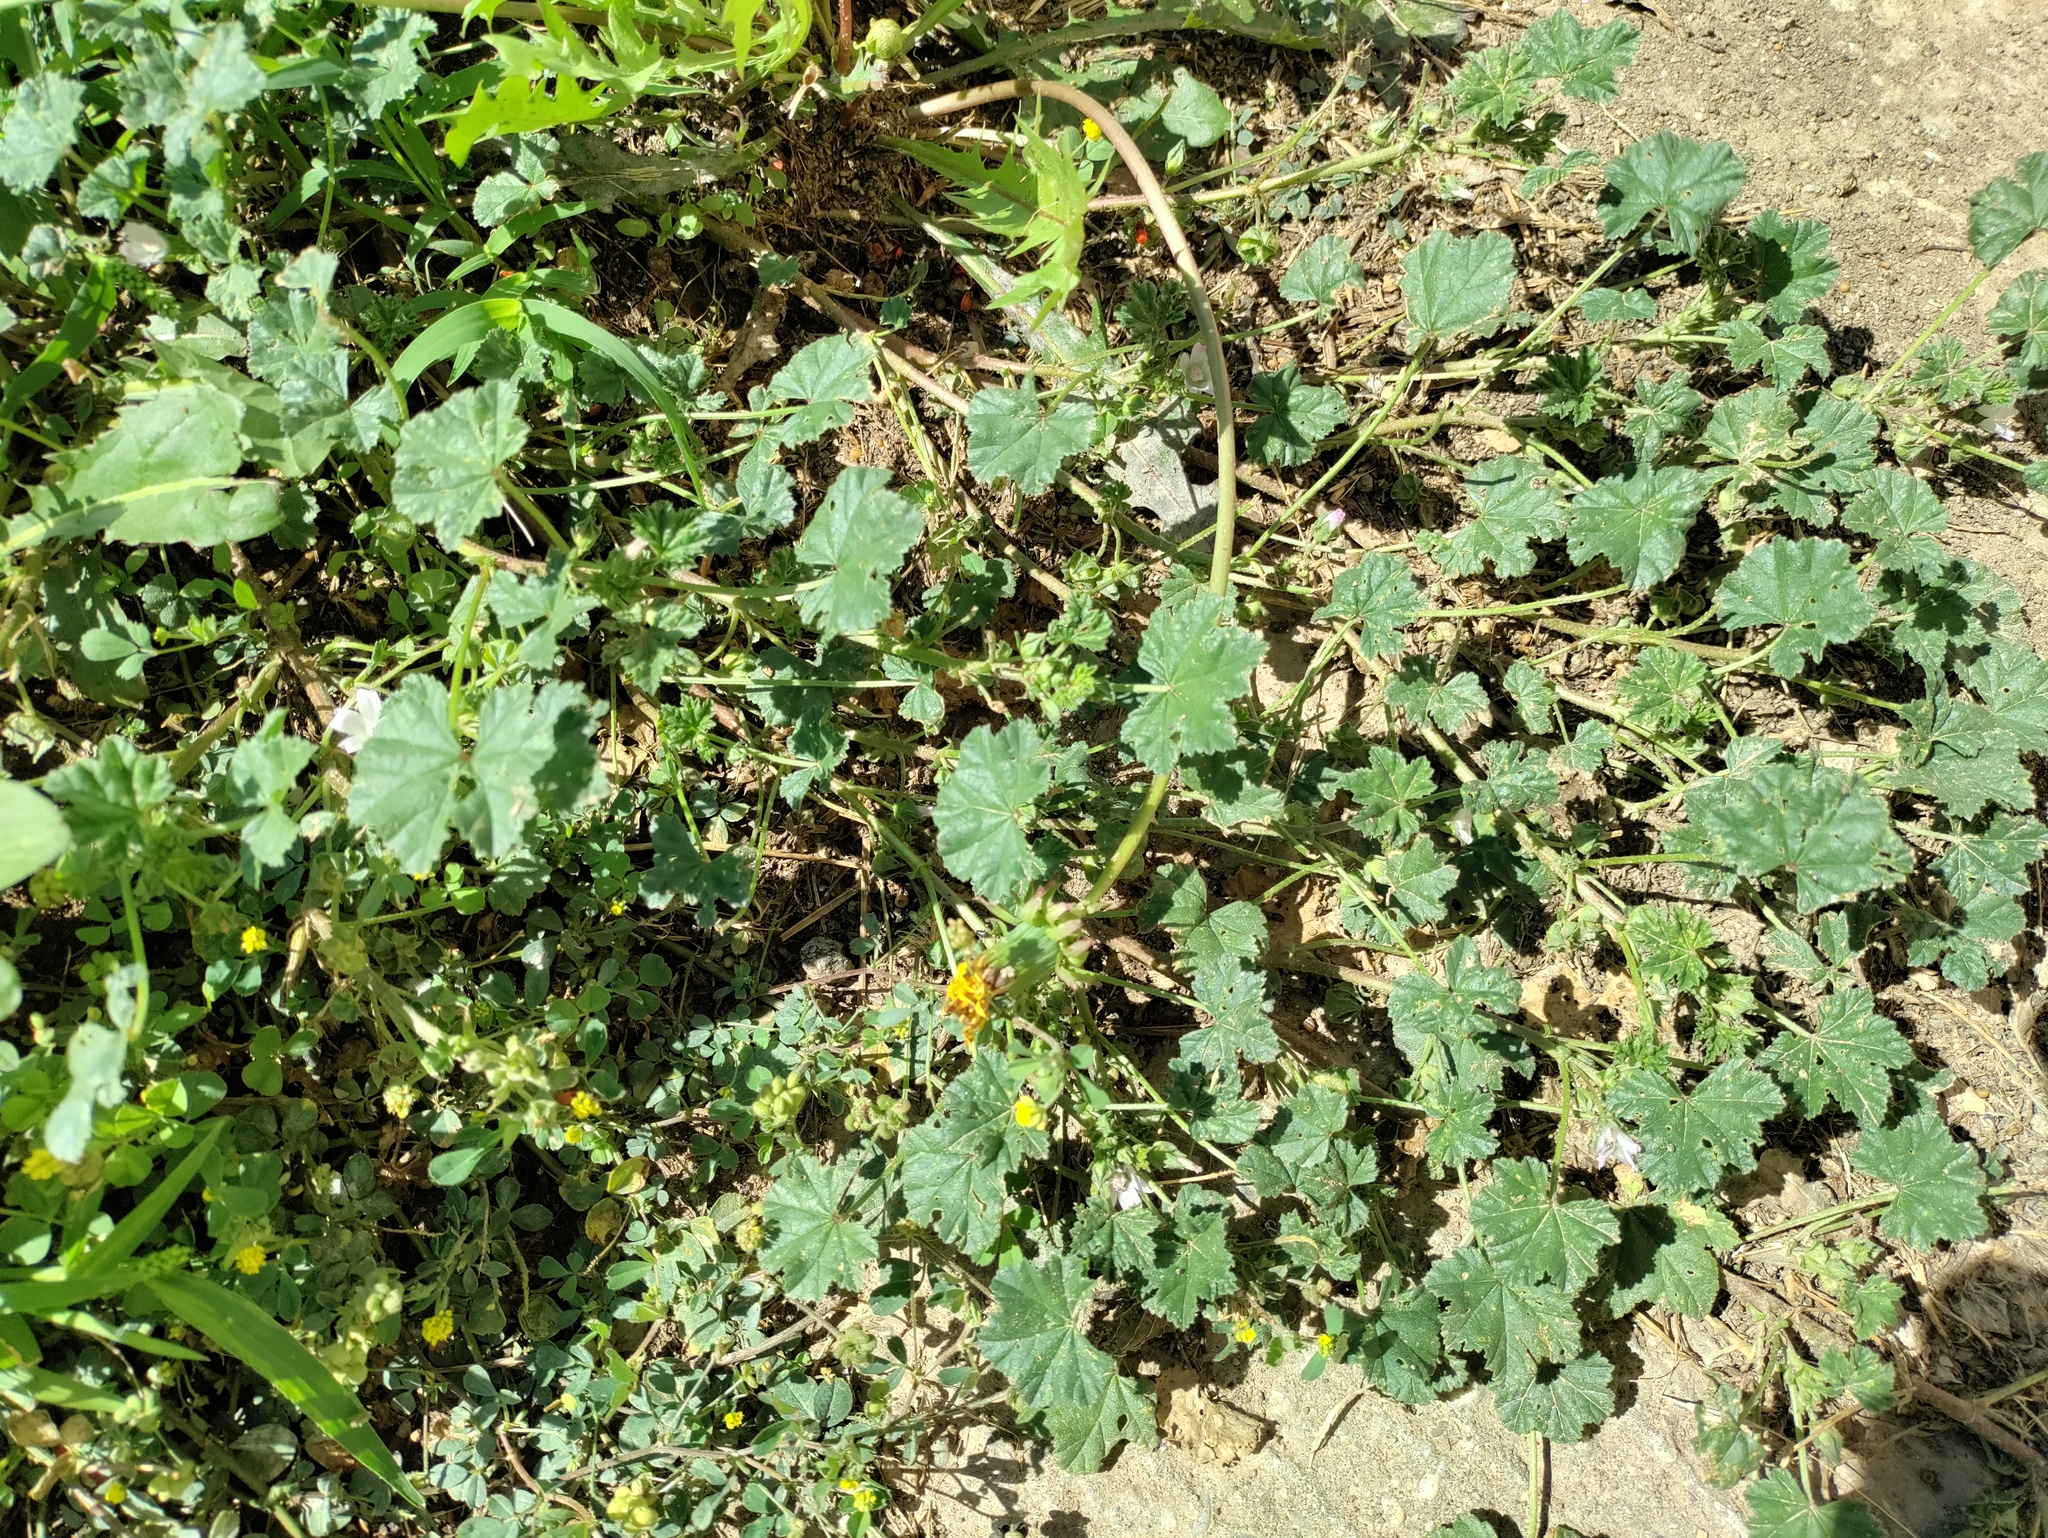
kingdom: Plantae
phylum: Tracheophyta
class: Magnoliopsida
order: Malvales
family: Malvaceae
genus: Malva
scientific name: Malva neglecta
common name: Common mallow
